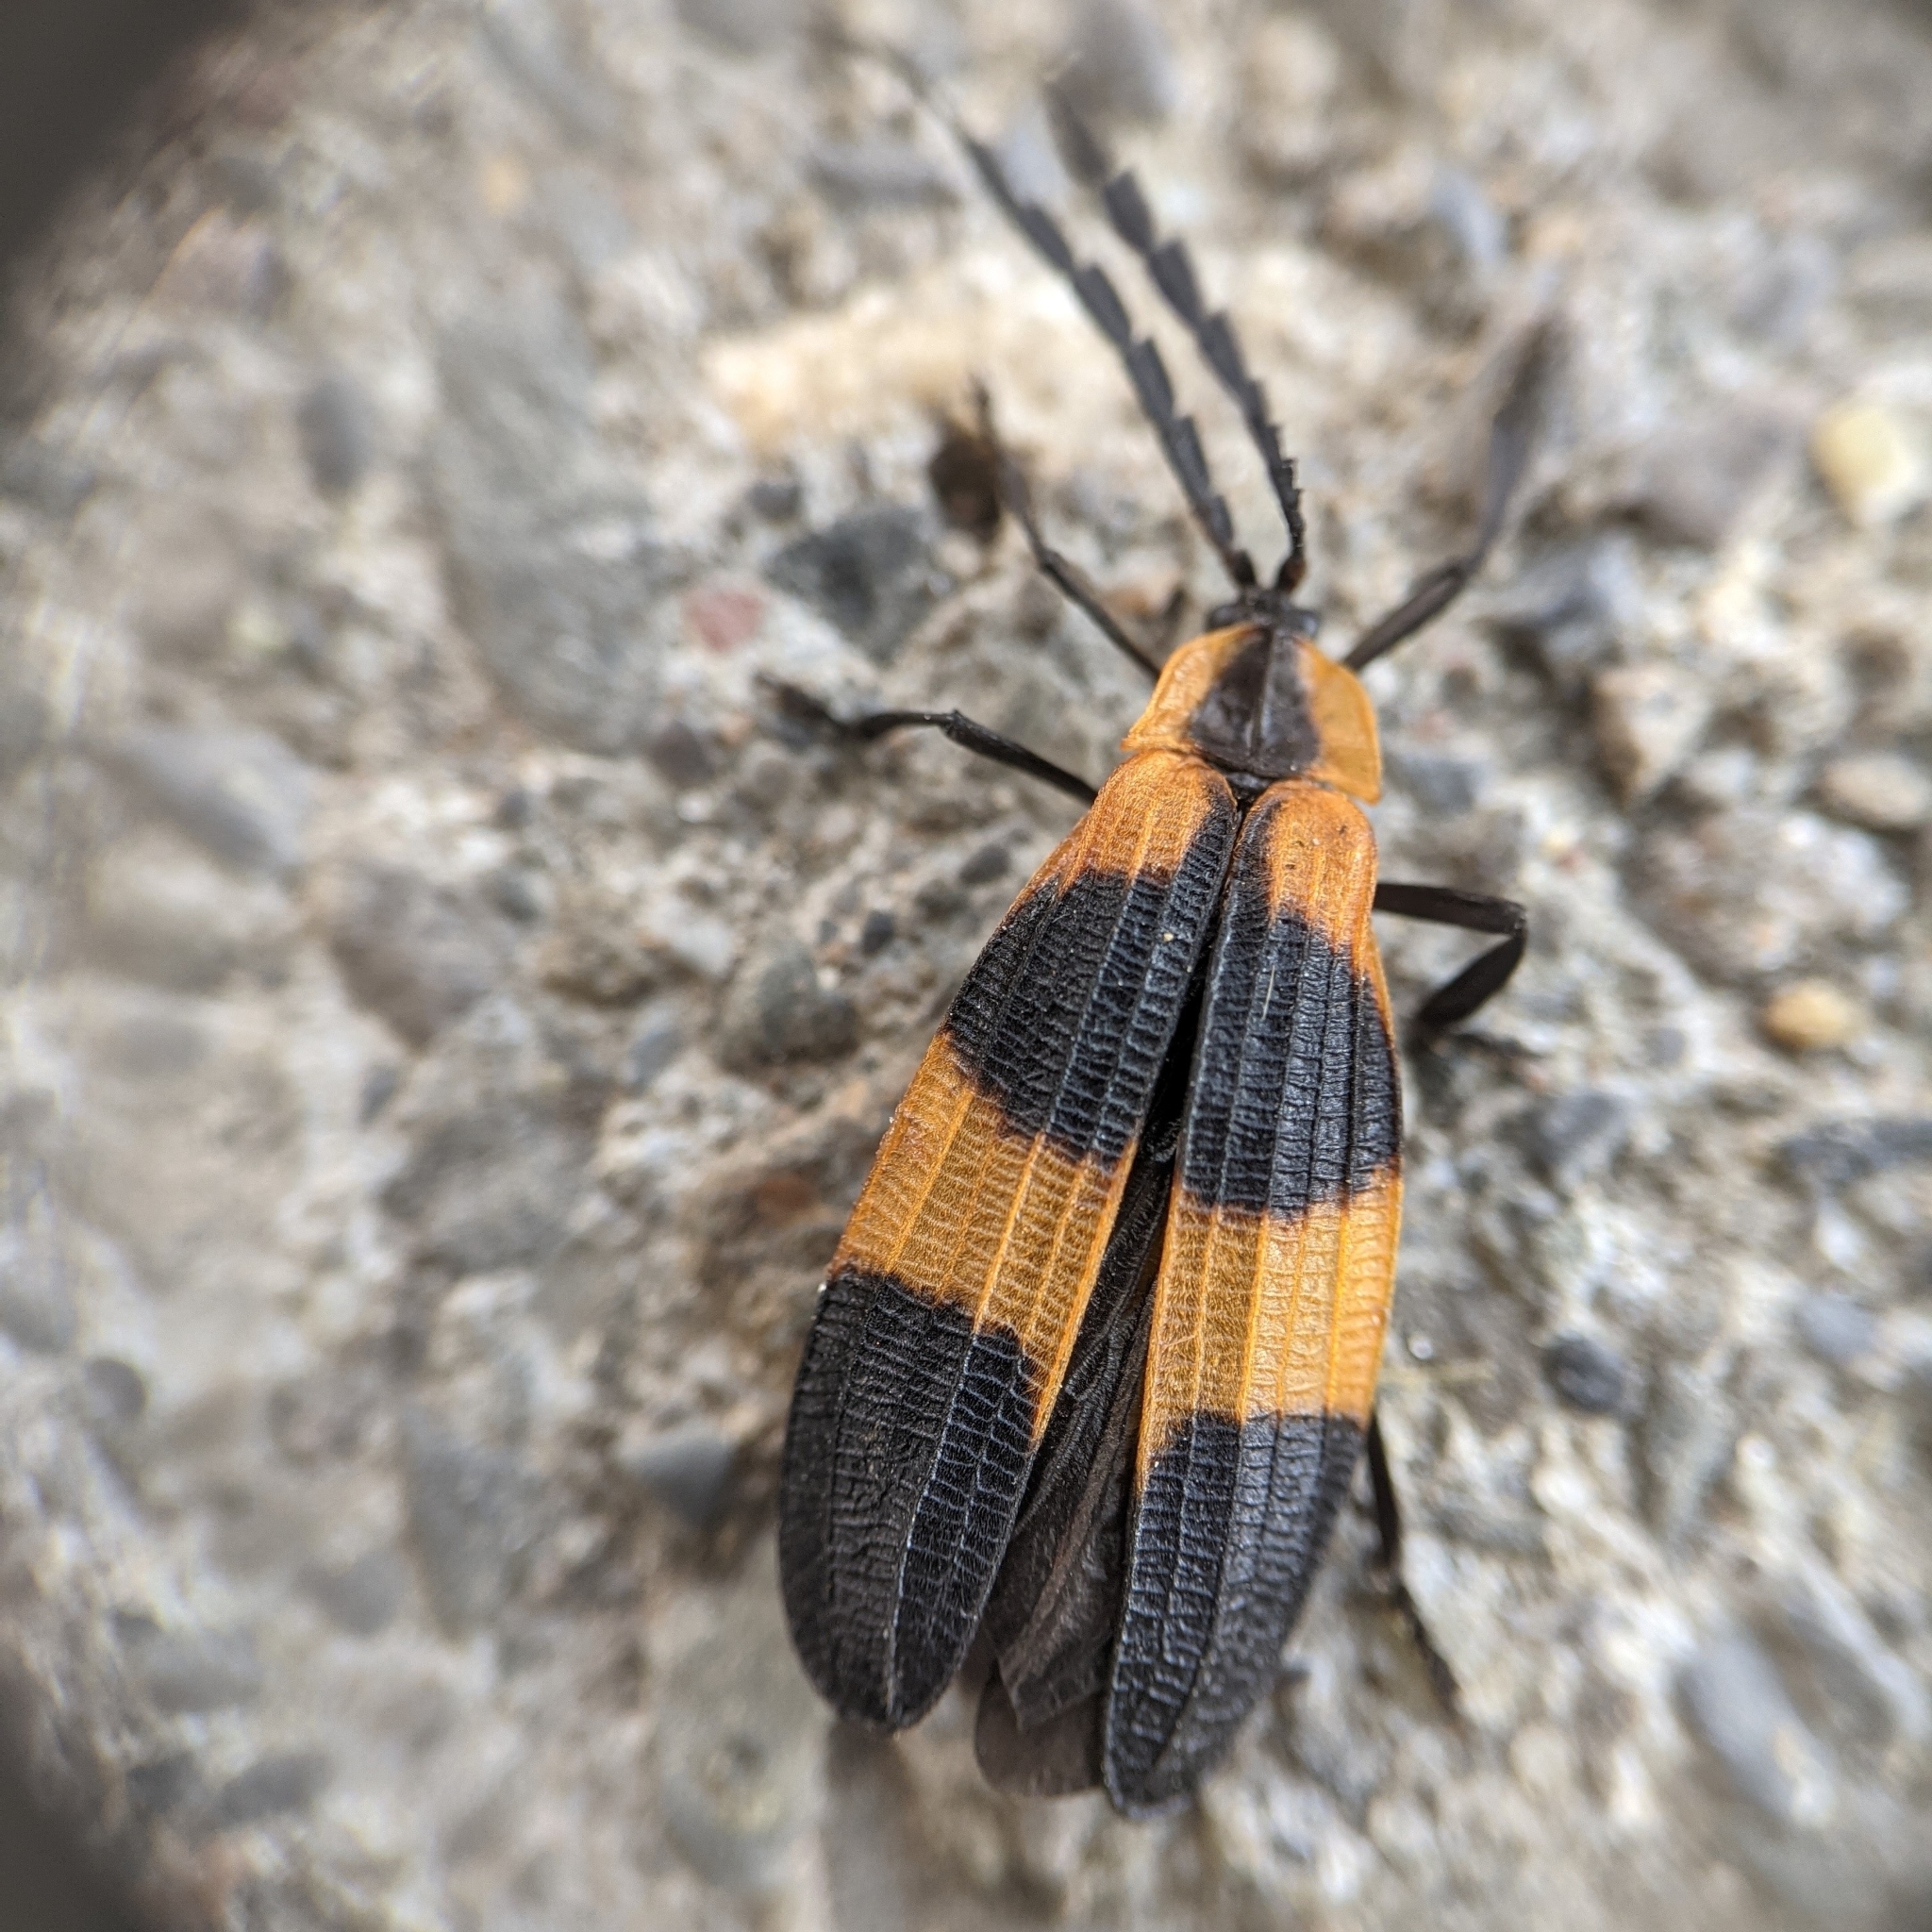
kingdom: Animalia
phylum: Arthropoda
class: Insecta
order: Coleoptera
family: Lycidae
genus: Calopteron
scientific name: Calopteron reticulatum
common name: Banded net-winged beetle
